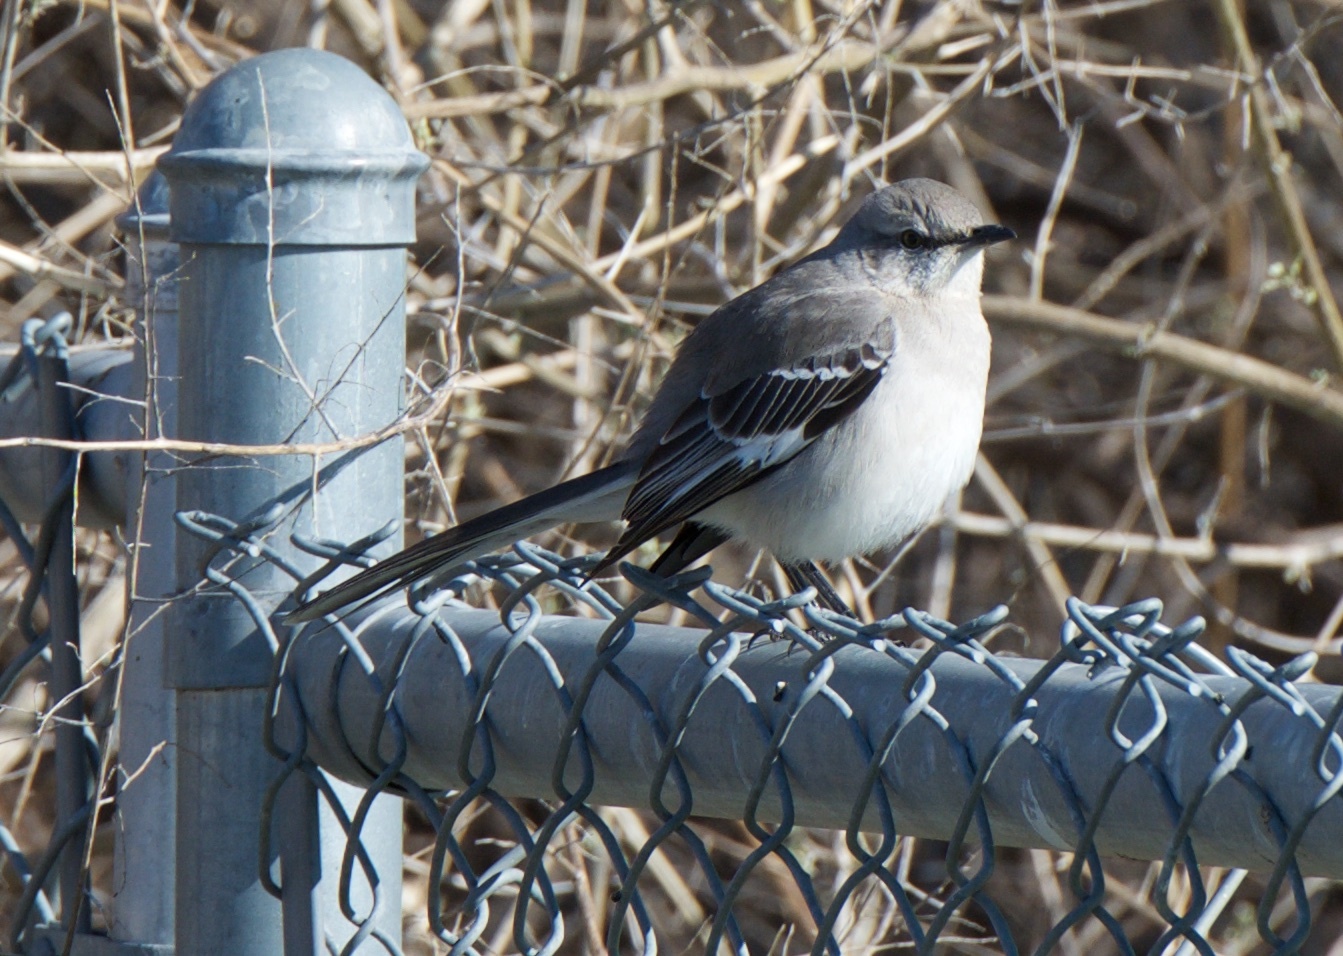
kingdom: Animalia
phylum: Chordata
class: Aves
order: Passeriformes
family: Mimidae
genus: Mimus
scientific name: Mimus polyglottos
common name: Northern mockingbird
